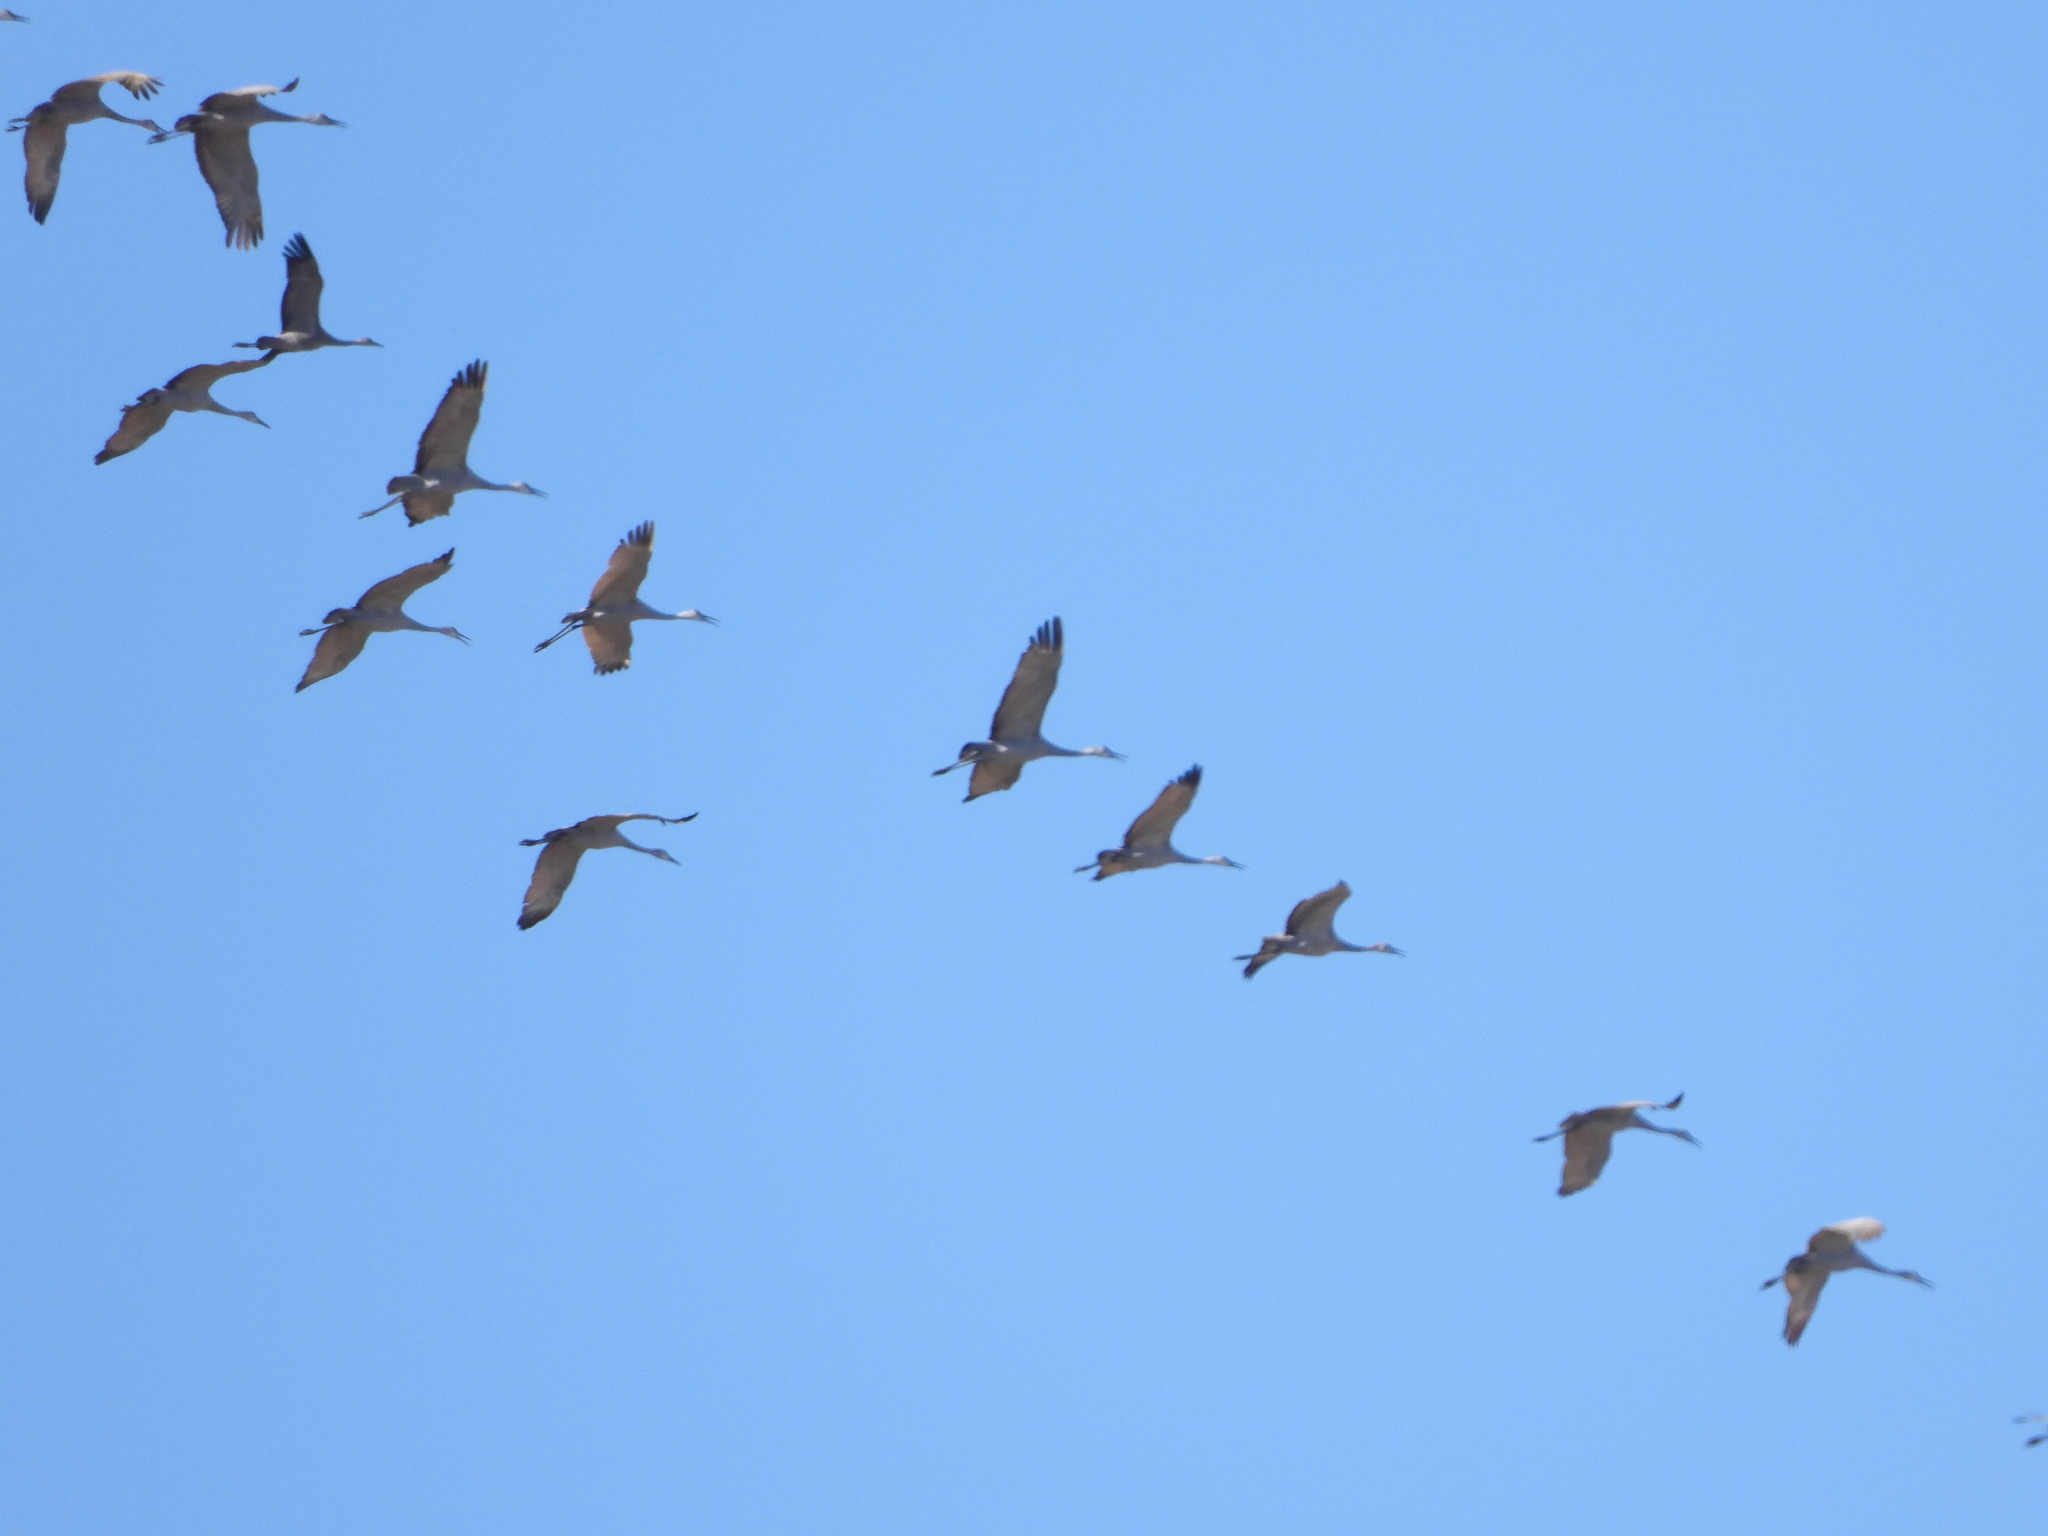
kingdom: Animalia
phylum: Chordata
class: Aves
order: Gruiformes
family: Gruidae
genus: Grus
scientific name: Grus canadensis
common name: Sandhill crane
